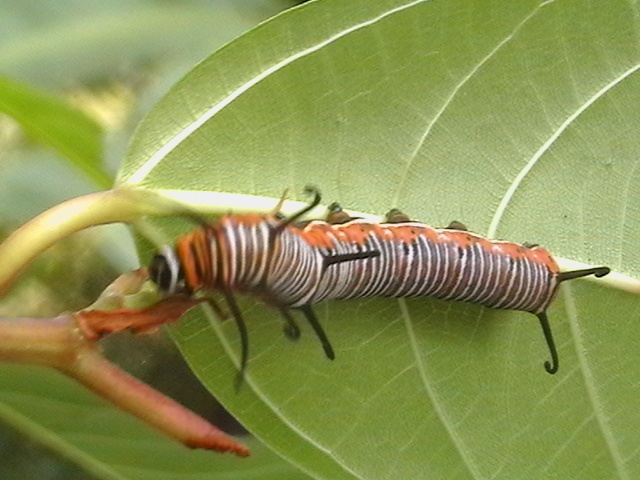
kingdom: Animalia
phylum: Arthropoda
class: Insecta
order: Lepidoptera
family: Nymphalidae
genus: Euploea
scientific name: Euploea core
